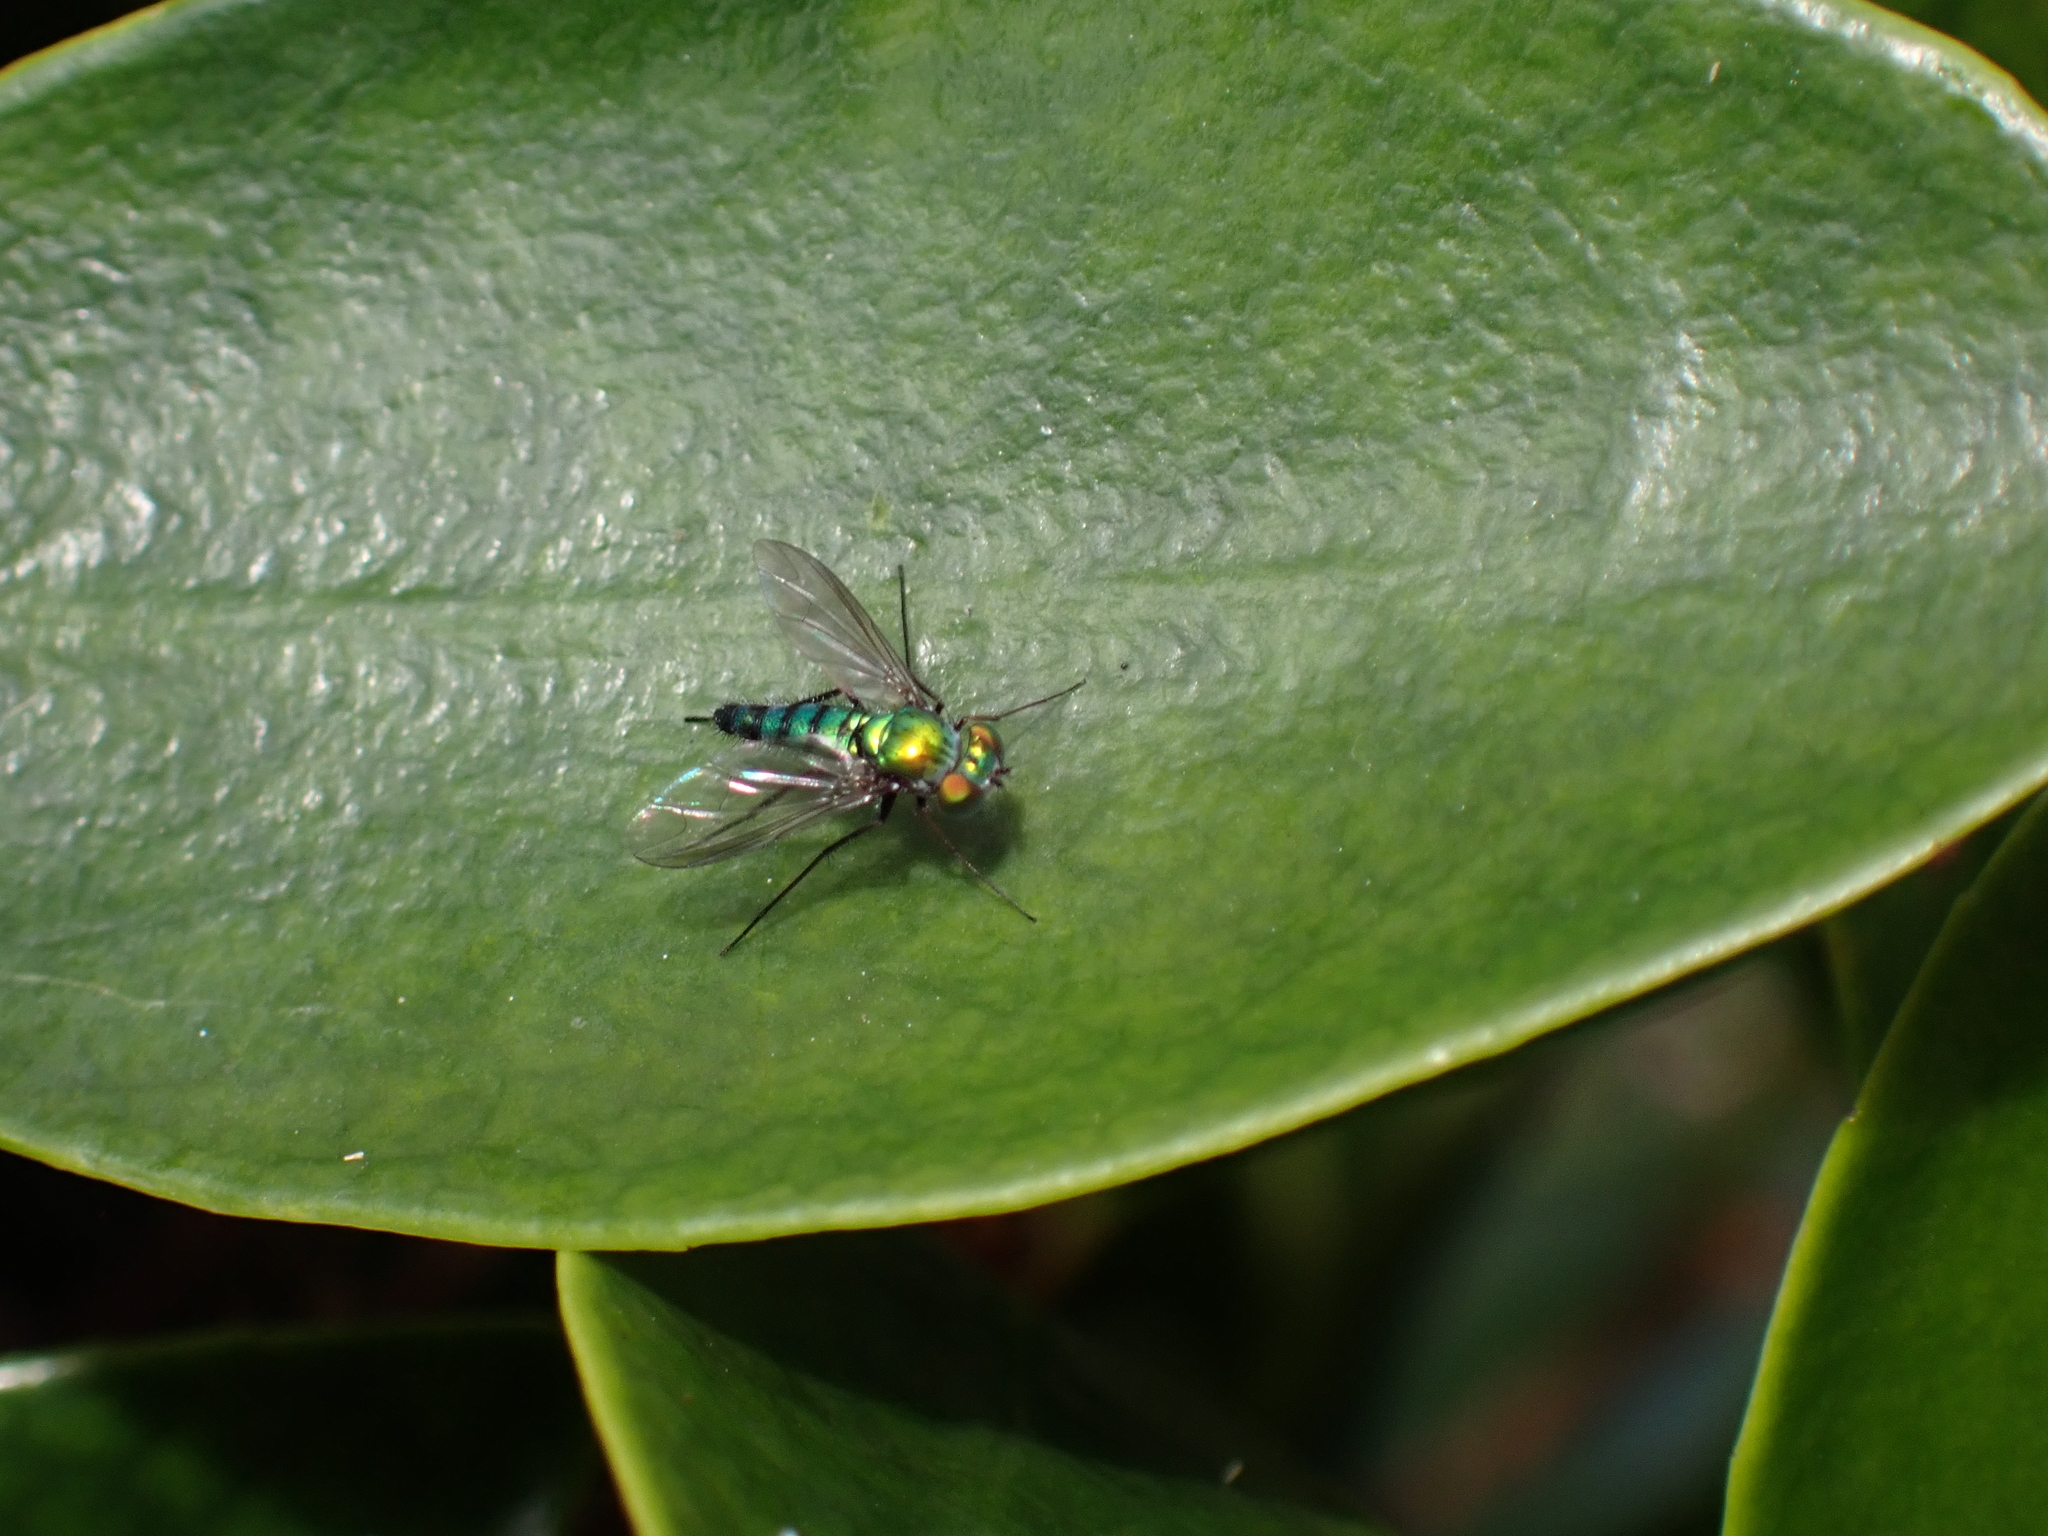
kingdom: Animalia
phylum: Arthropoda
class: Insecta
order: Diptera
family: Dolichopodidae
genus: Condylostylus
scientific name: Condylostylus longicornis
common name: Long-legged fly
